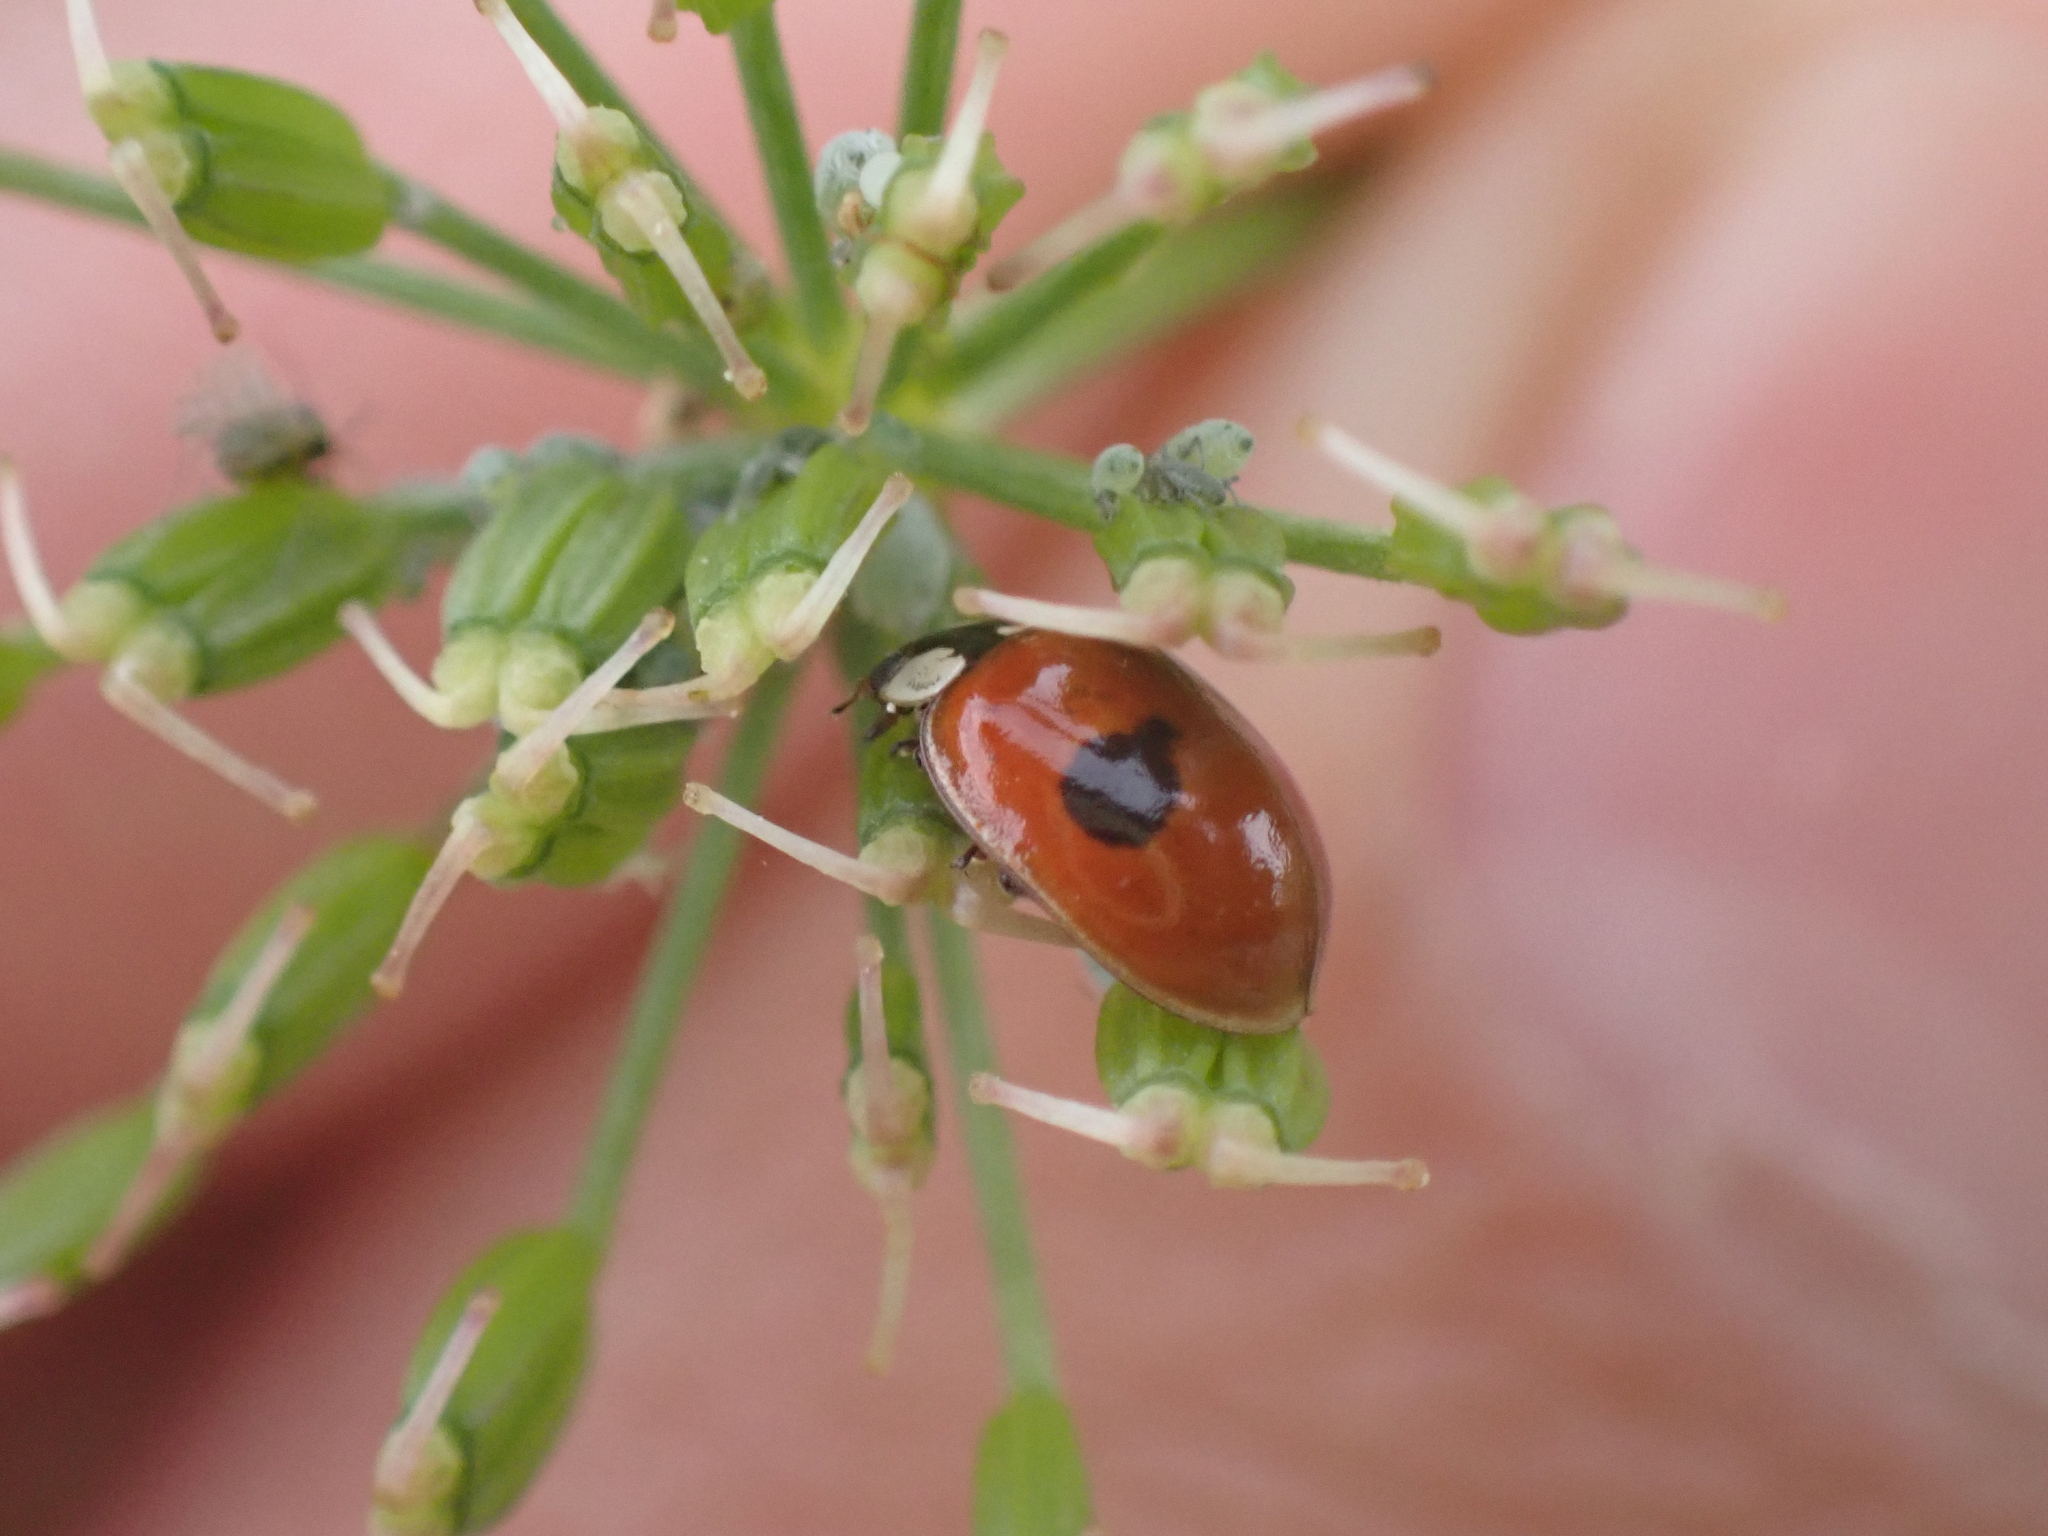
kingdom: Animalia
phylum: Arthropoda
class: Insecta
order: Coleoptera
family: Coccinellidae
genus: Adalia
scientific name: Adalia bipunctata
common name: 2-spot ladybird
